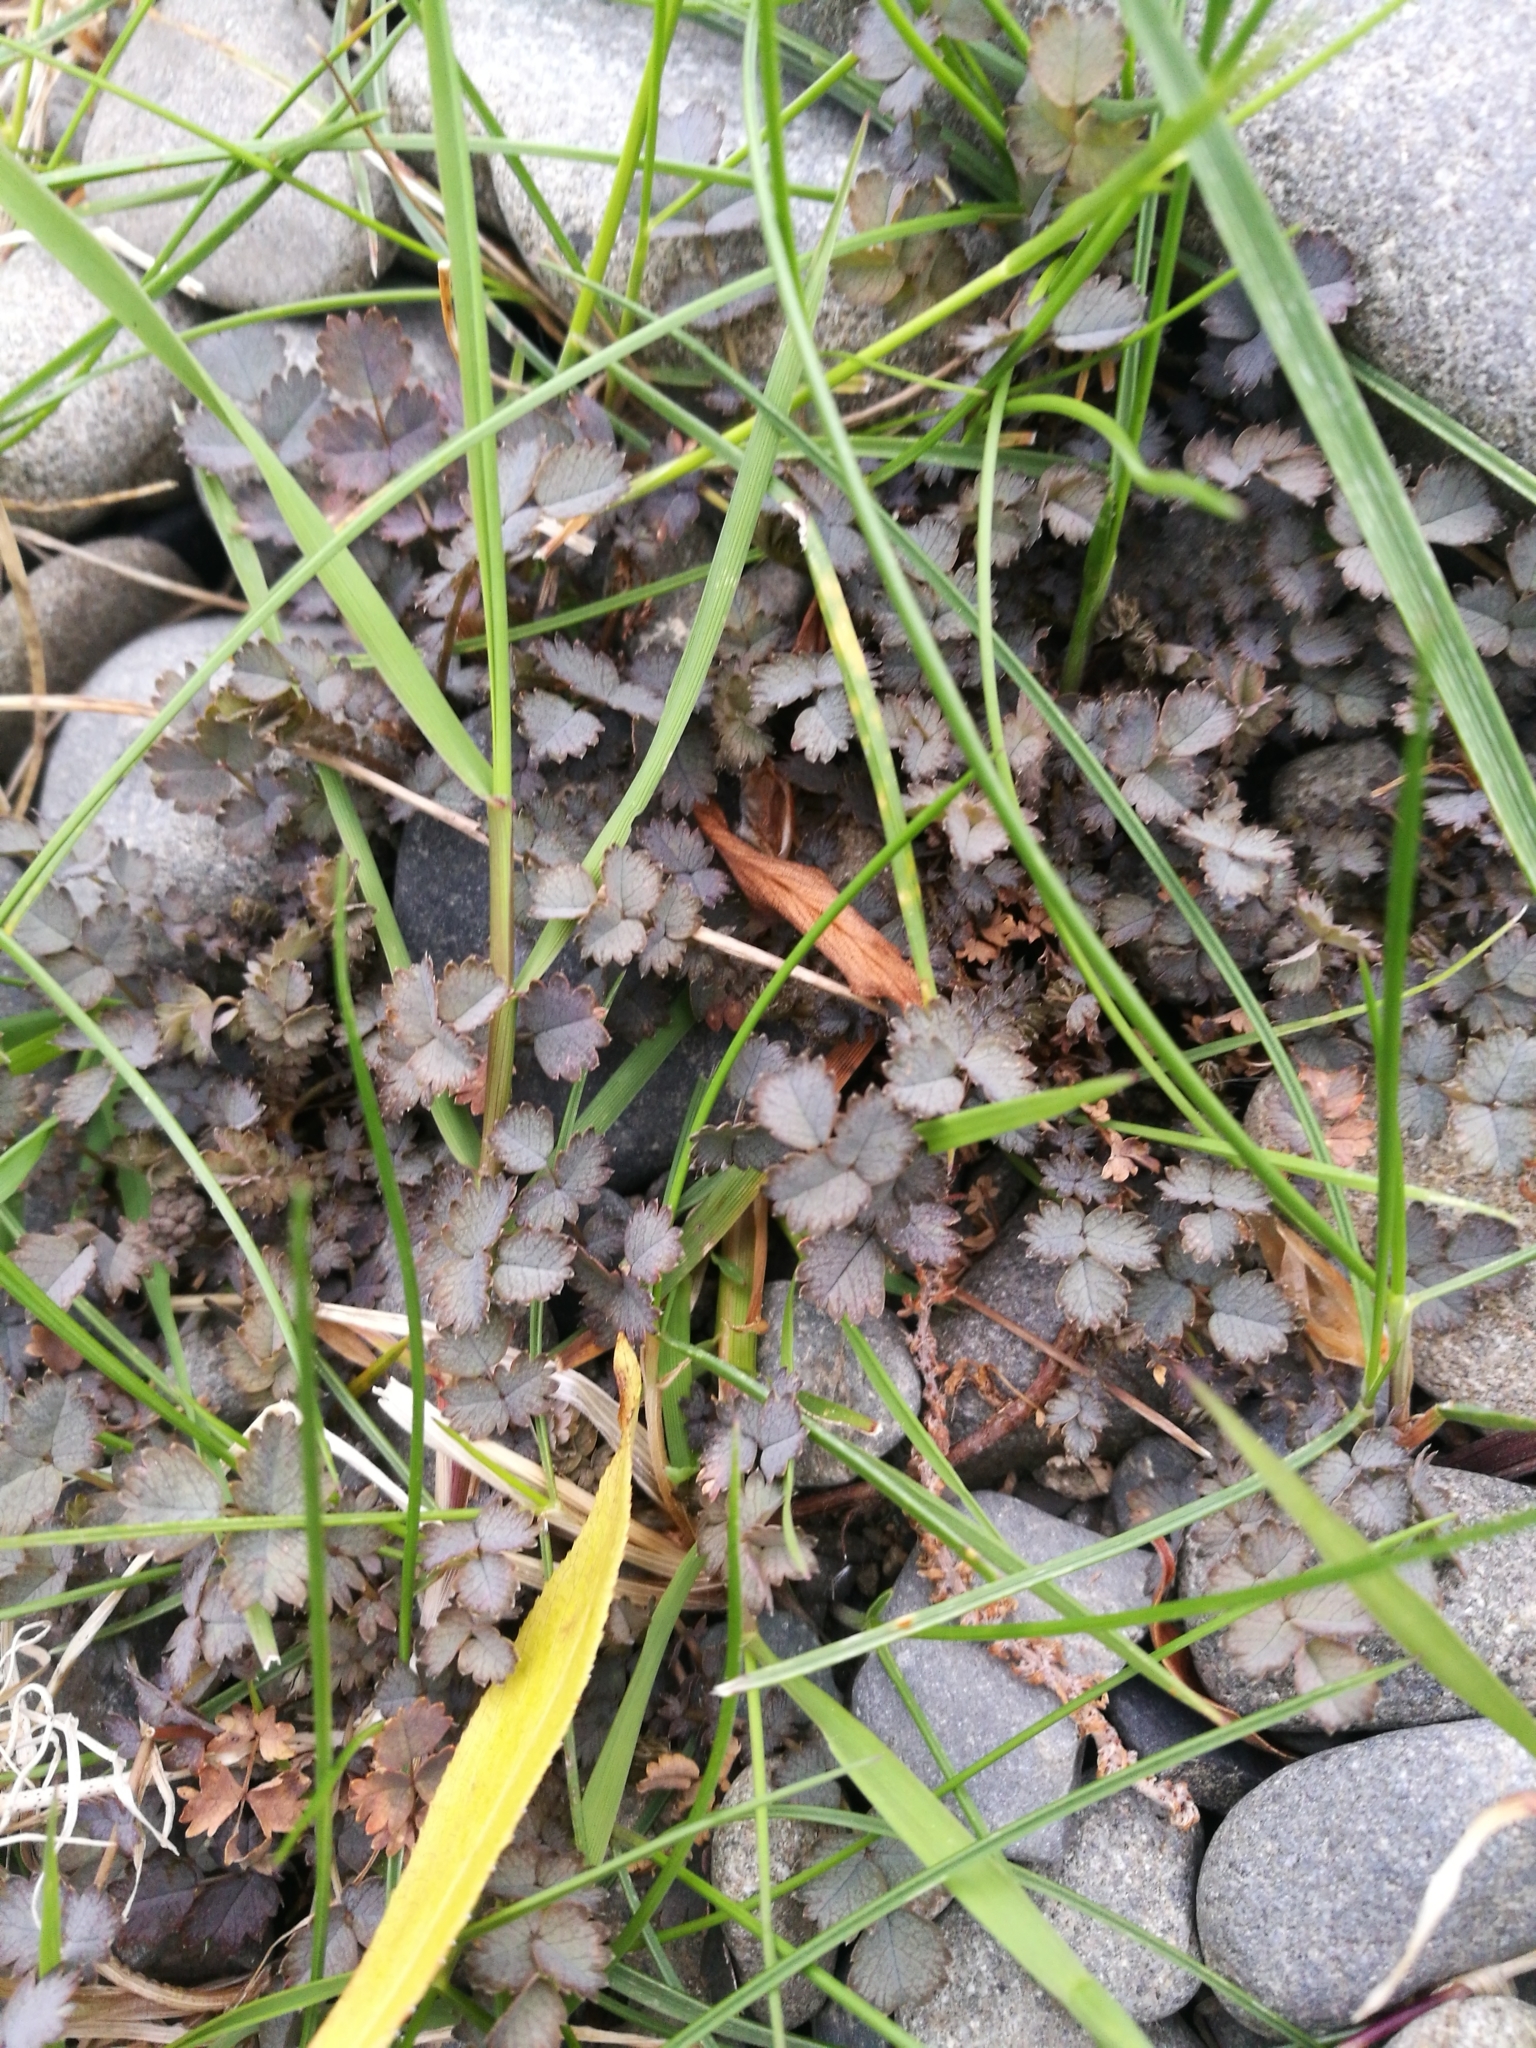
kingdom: Plantae
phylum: Tracheophyta
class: Magnoliopsida
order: Rosales
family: Rosaceae
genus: Acaena
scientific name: Acaena inermis
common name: Spineless acaena
